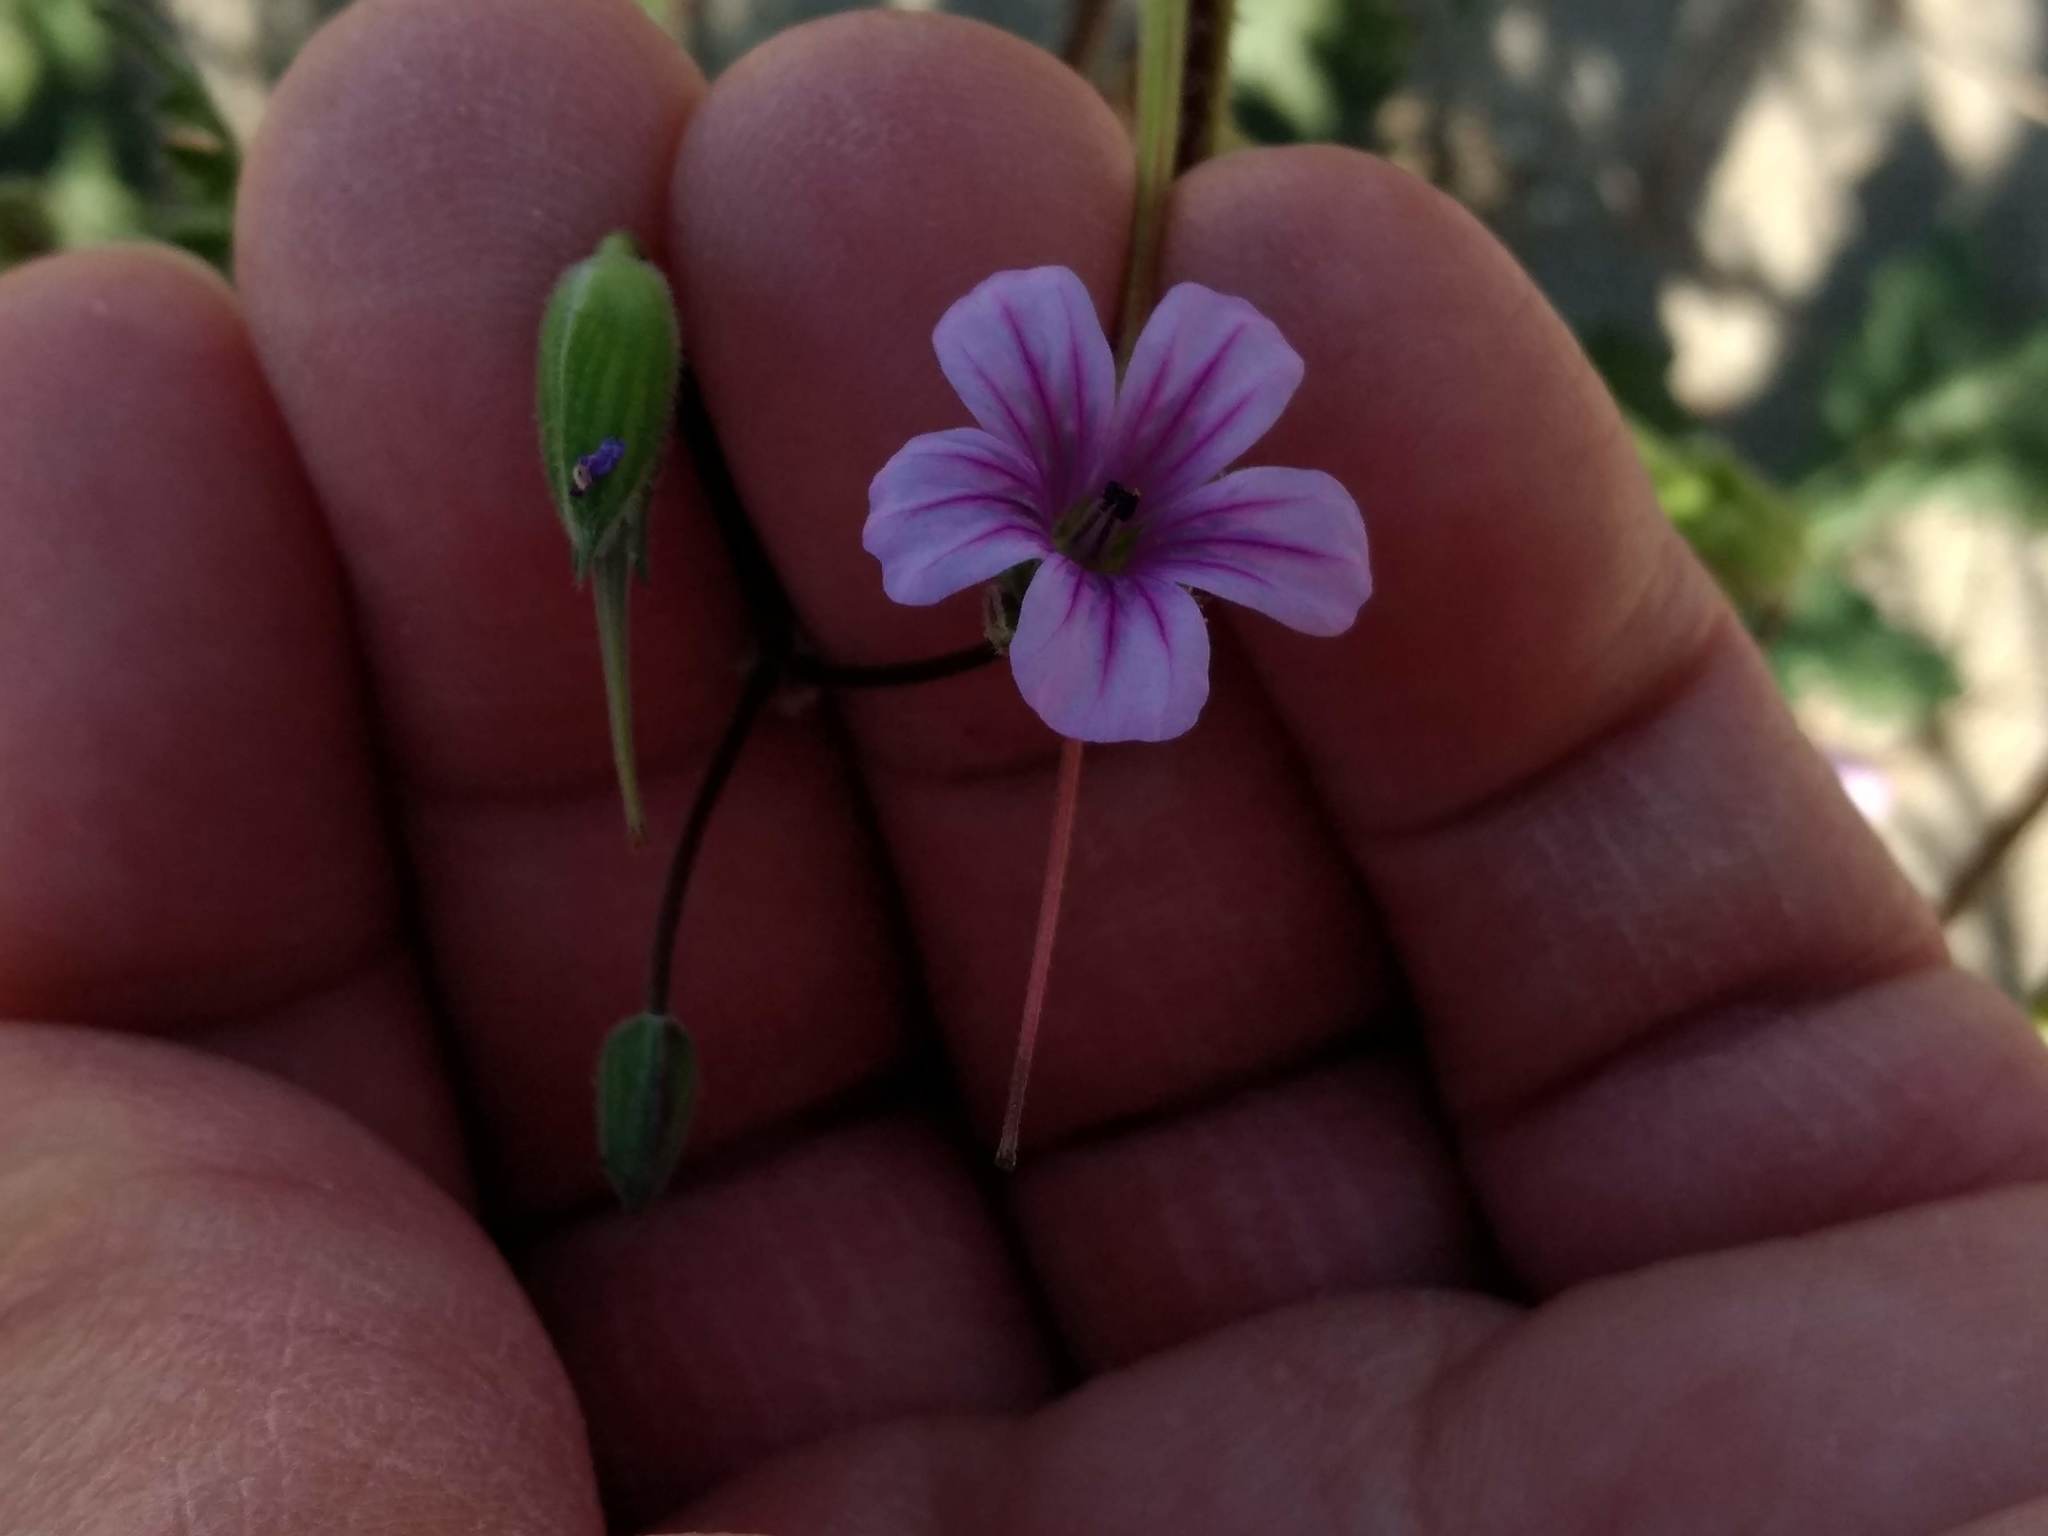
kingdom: Plantae
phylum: Tracheophyta
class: Magnoliopsida
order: Geraniales
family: Geraniaceae
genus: Erodium
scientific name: Erodium botrys
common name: Mediterranean stork's-bill
